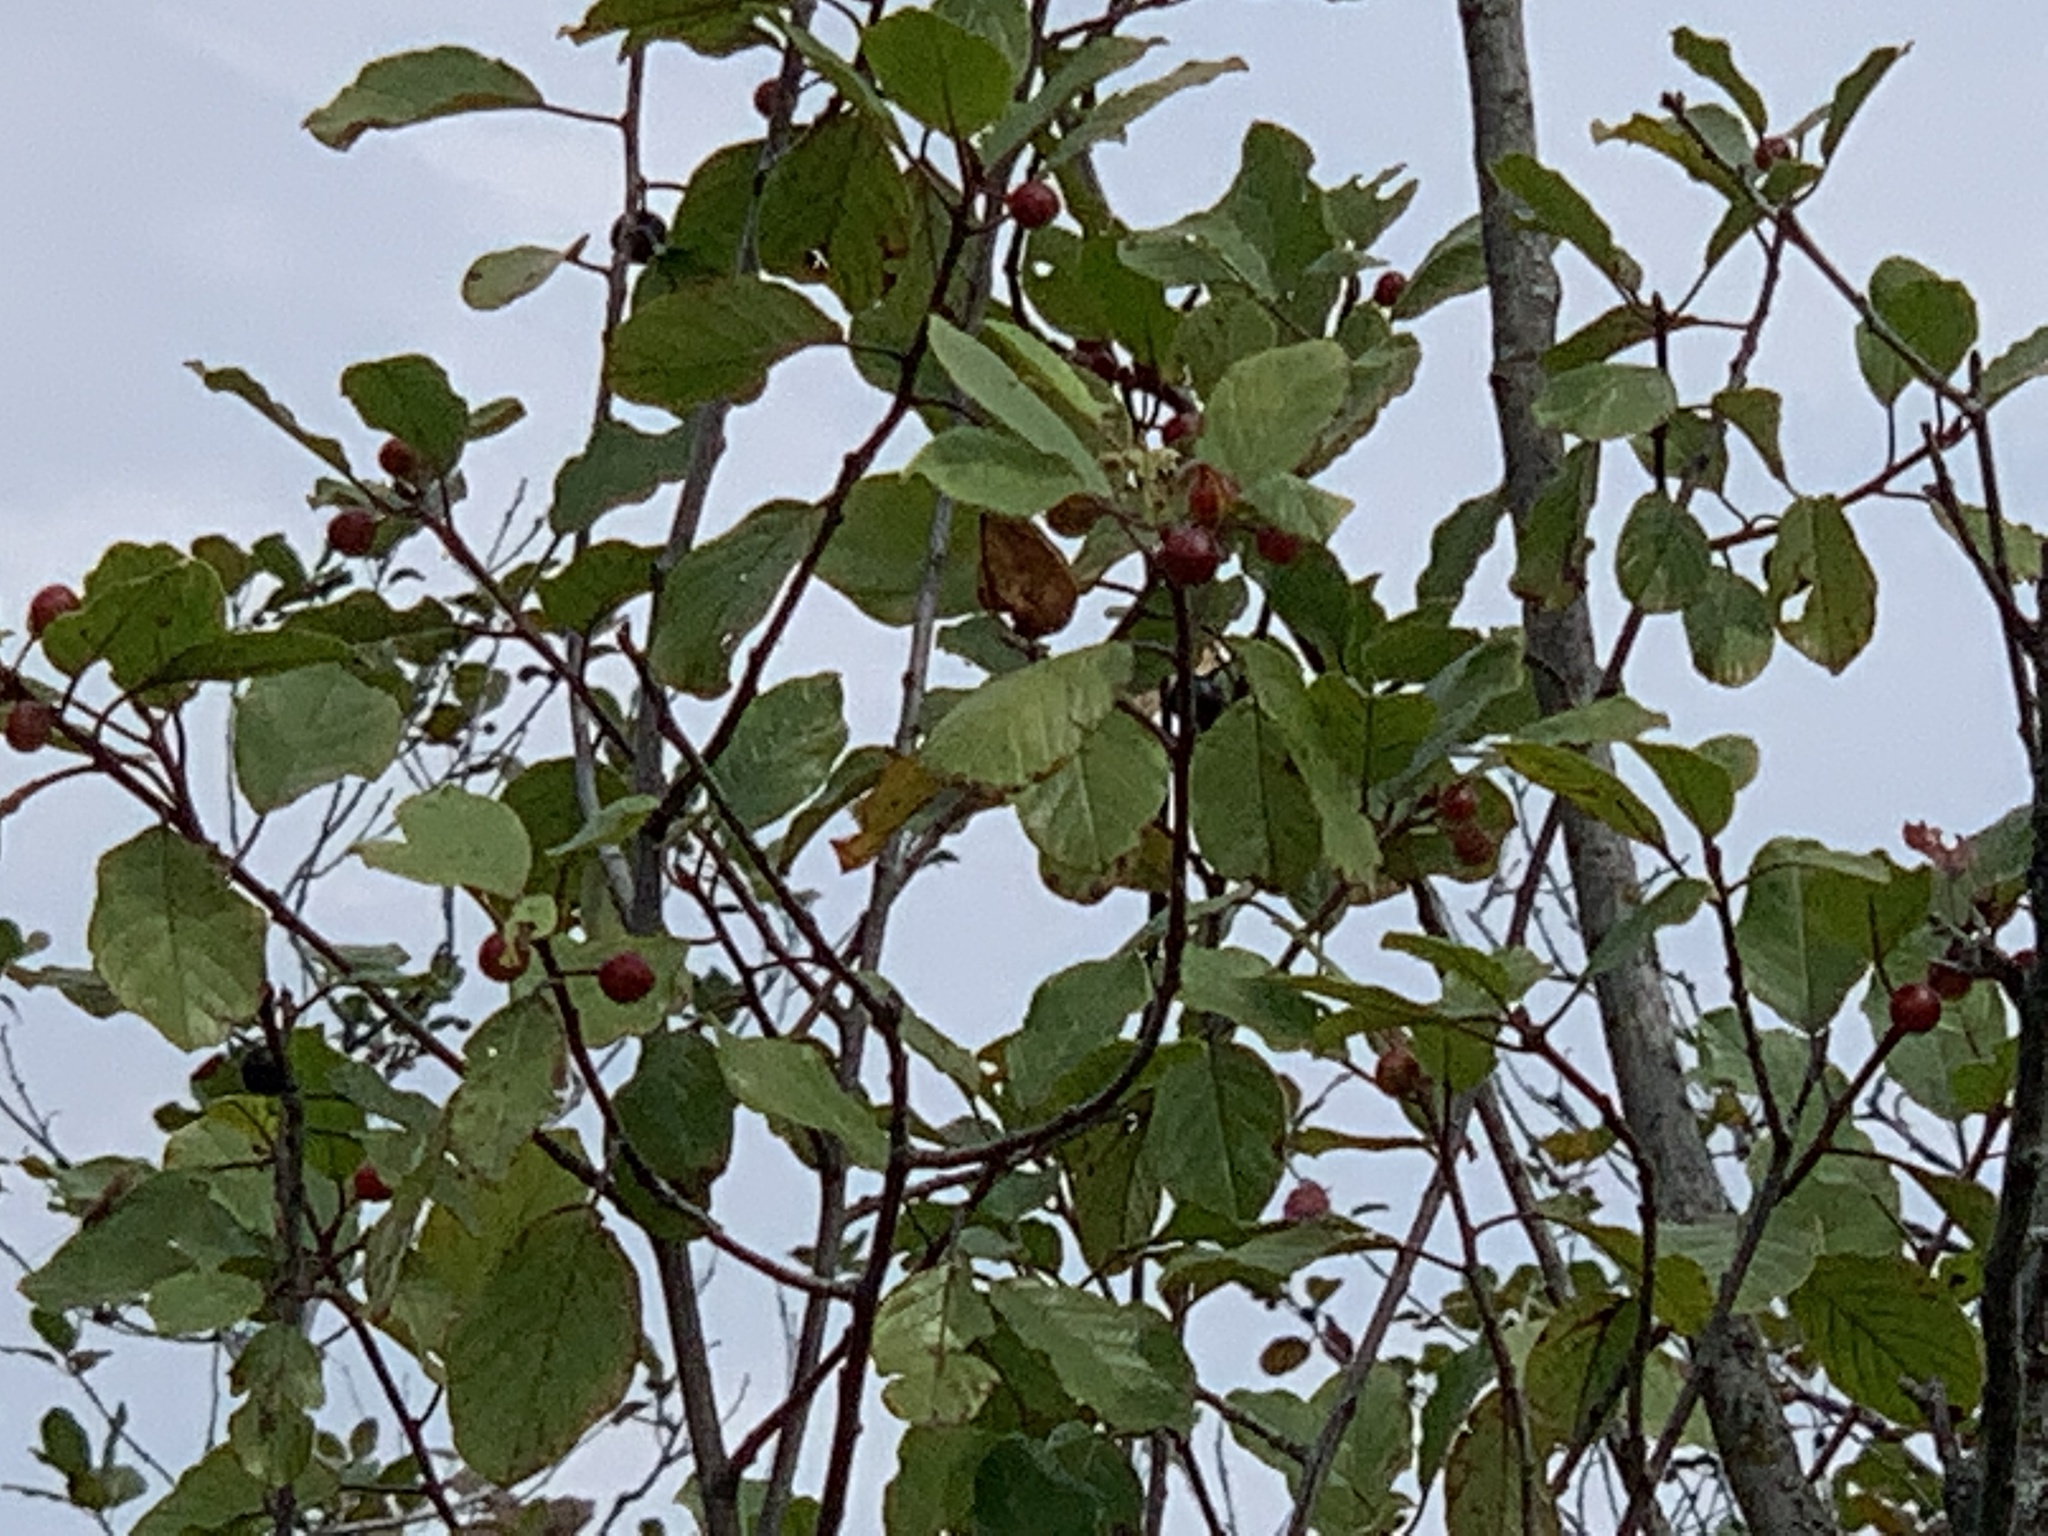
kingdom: Plantae
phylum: Tracheophyta
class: Magnoliopsida
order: Rosales
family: Rhamnaceae
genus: Frangula
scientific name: Frangula alnus
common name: Alder buckthorn
